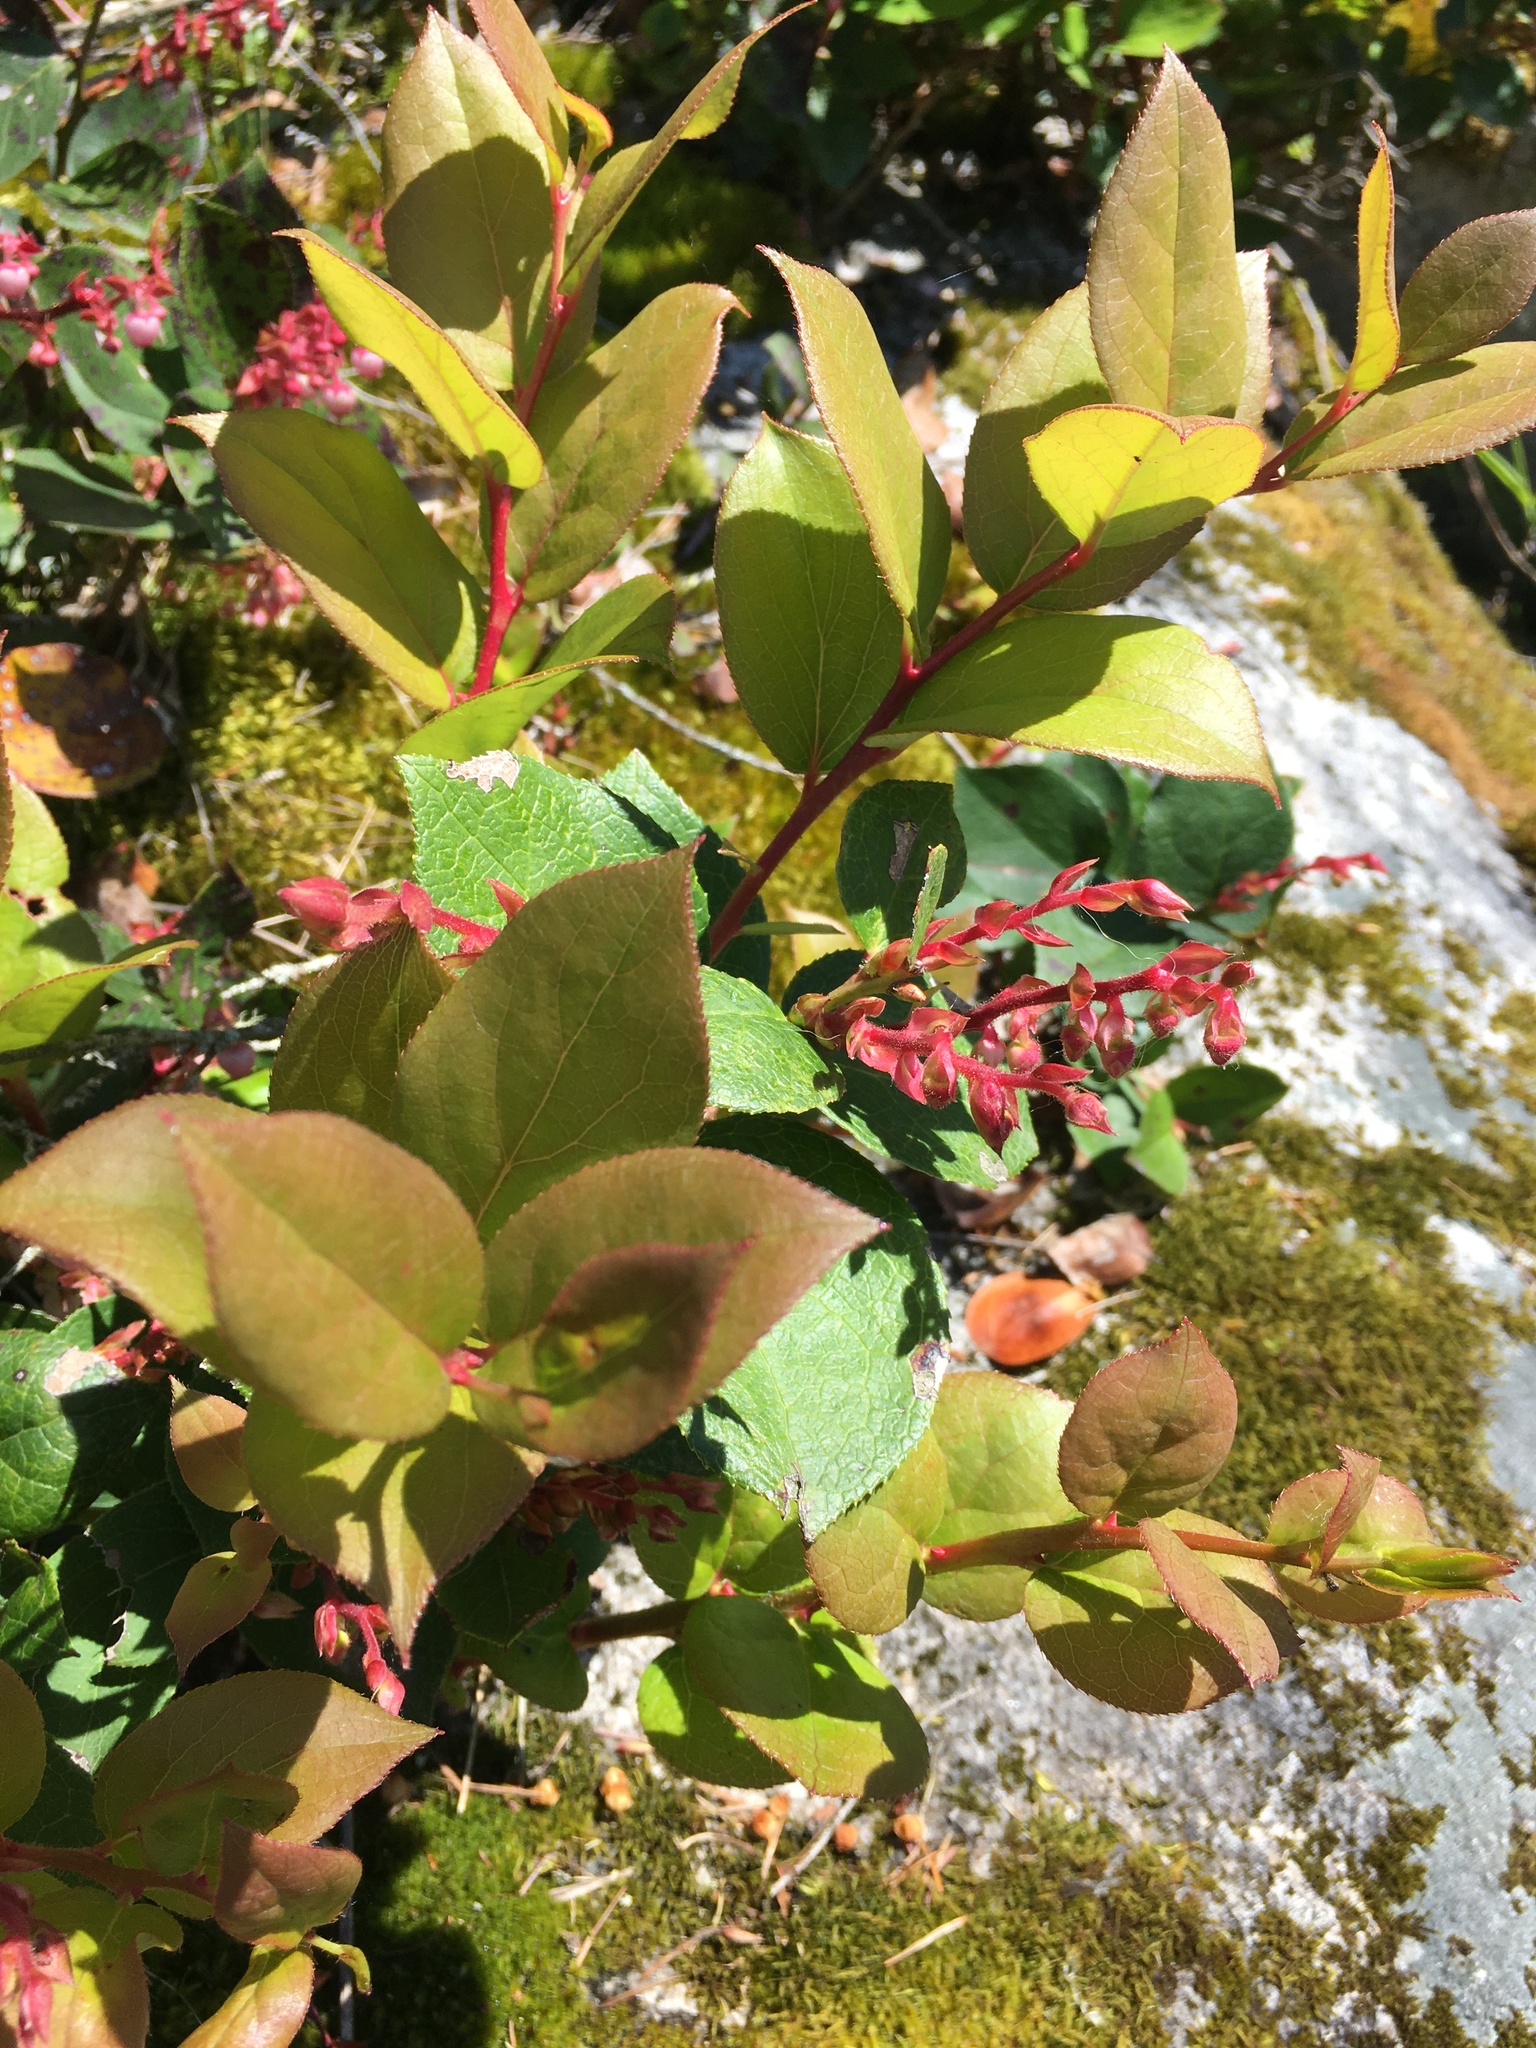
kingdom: Plantae
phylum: Tracheophyta
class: Magnoliopsida
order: Ericales
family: Ericaceae
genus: Gaultheria
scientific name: Gaultheria shallon
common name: Shallon
